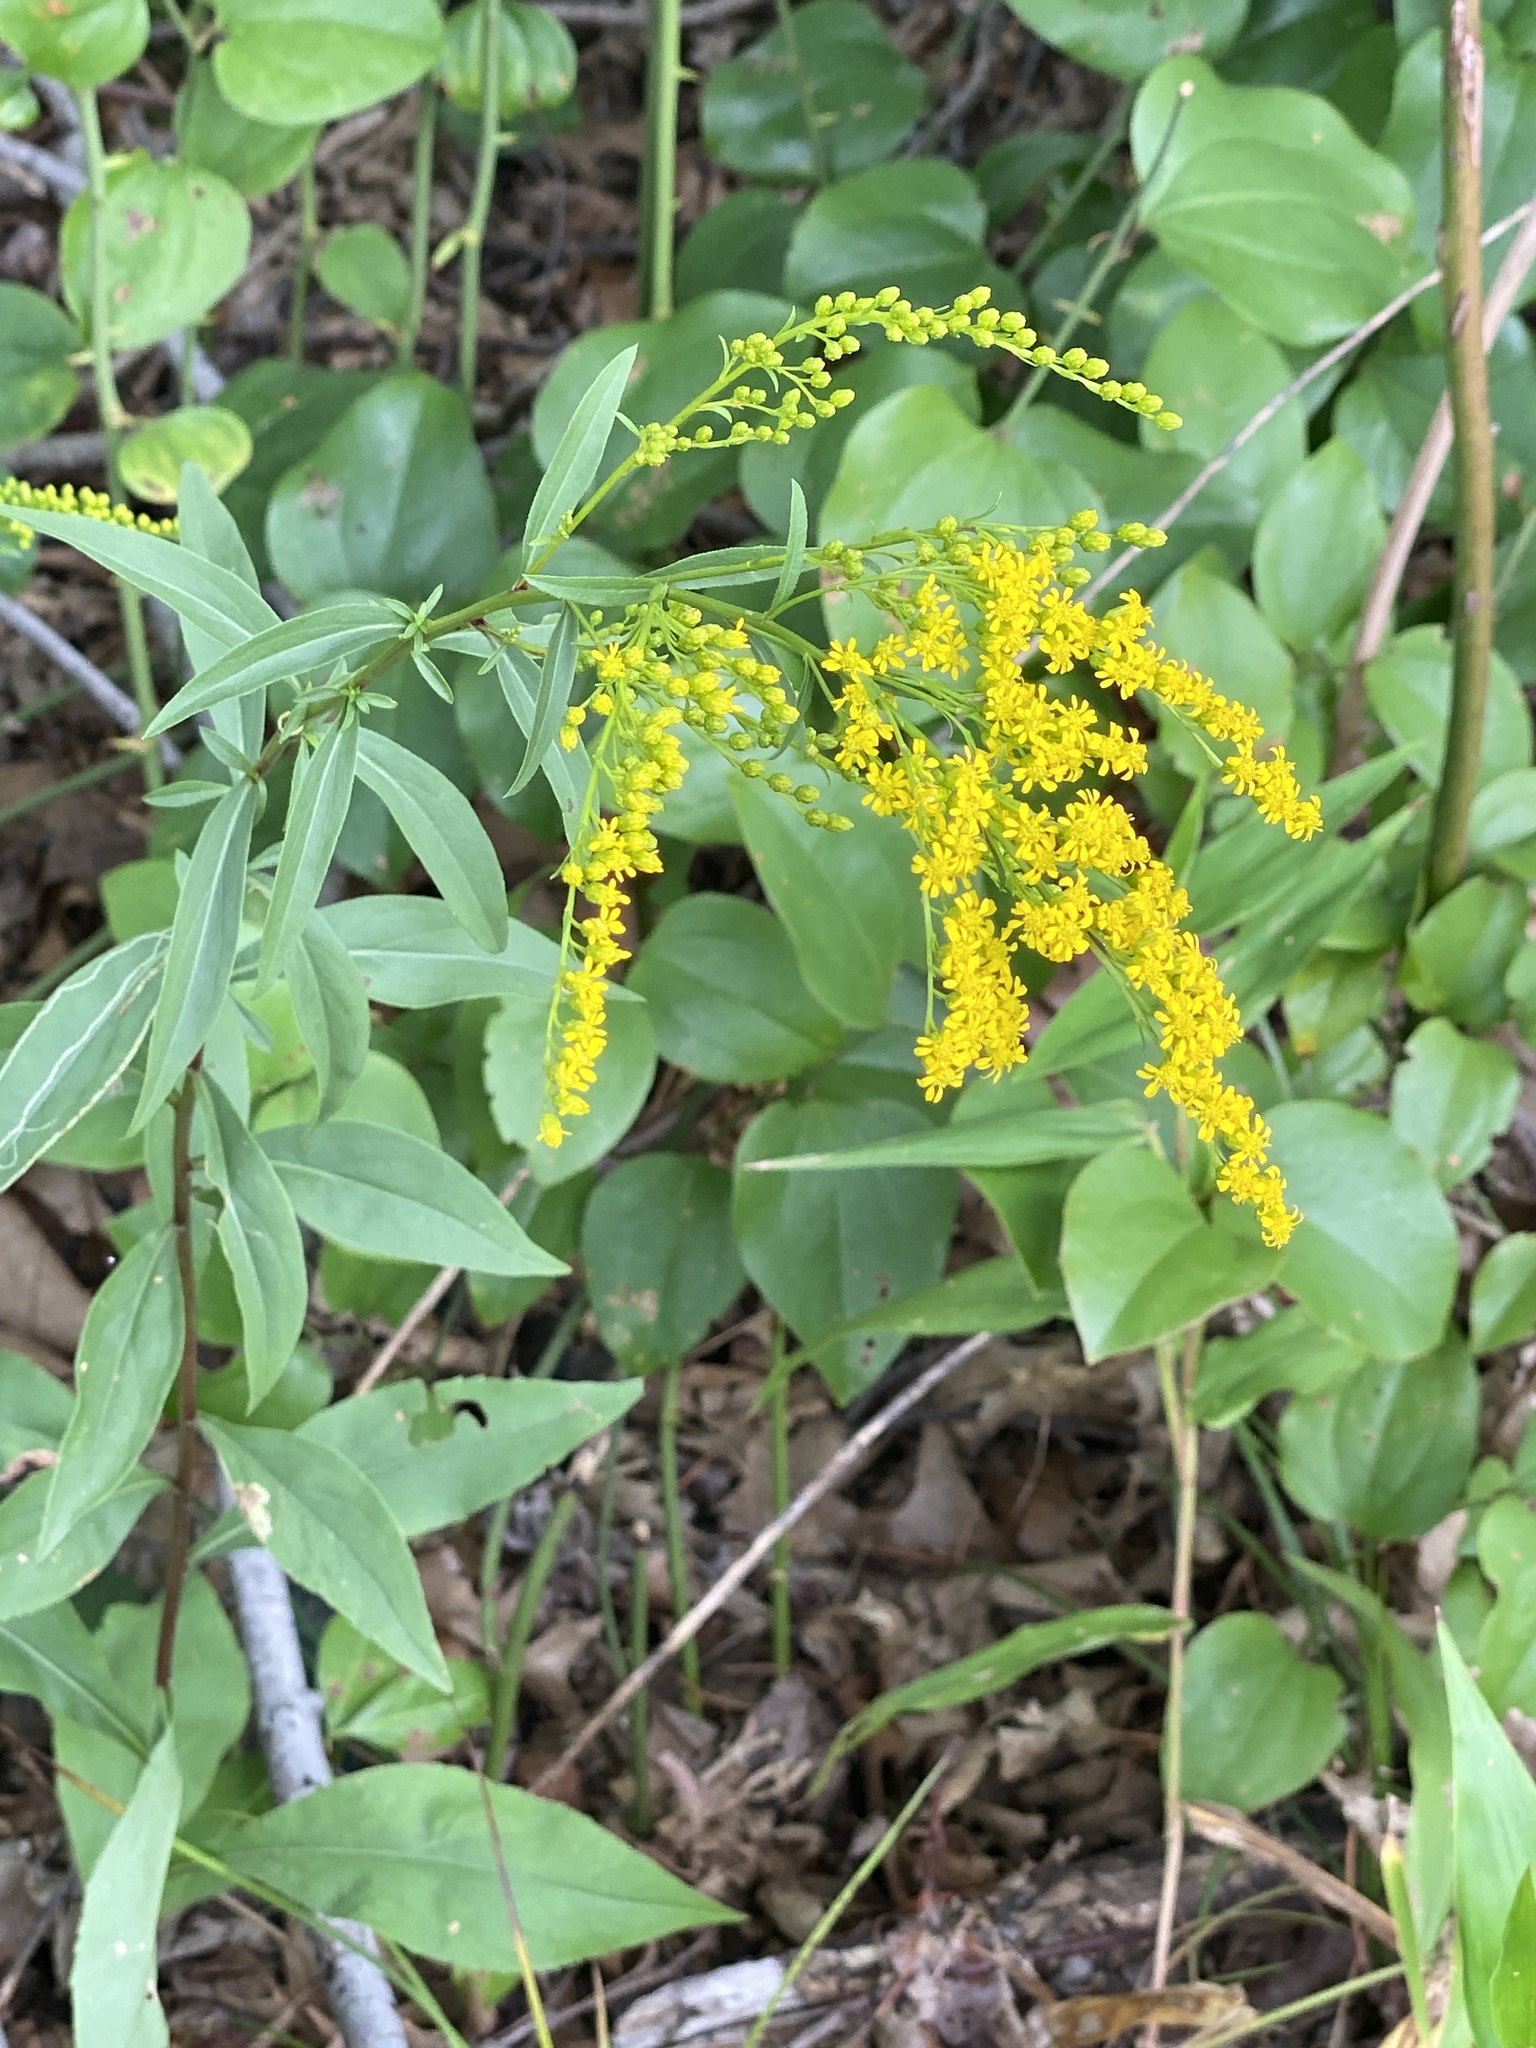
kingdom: Plantae
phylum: Tracheophyta
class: Magnoliopsida
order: Asterales
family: Asteraceae
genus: Solidago
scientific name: Solidago juncea
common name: Early goldenrod
